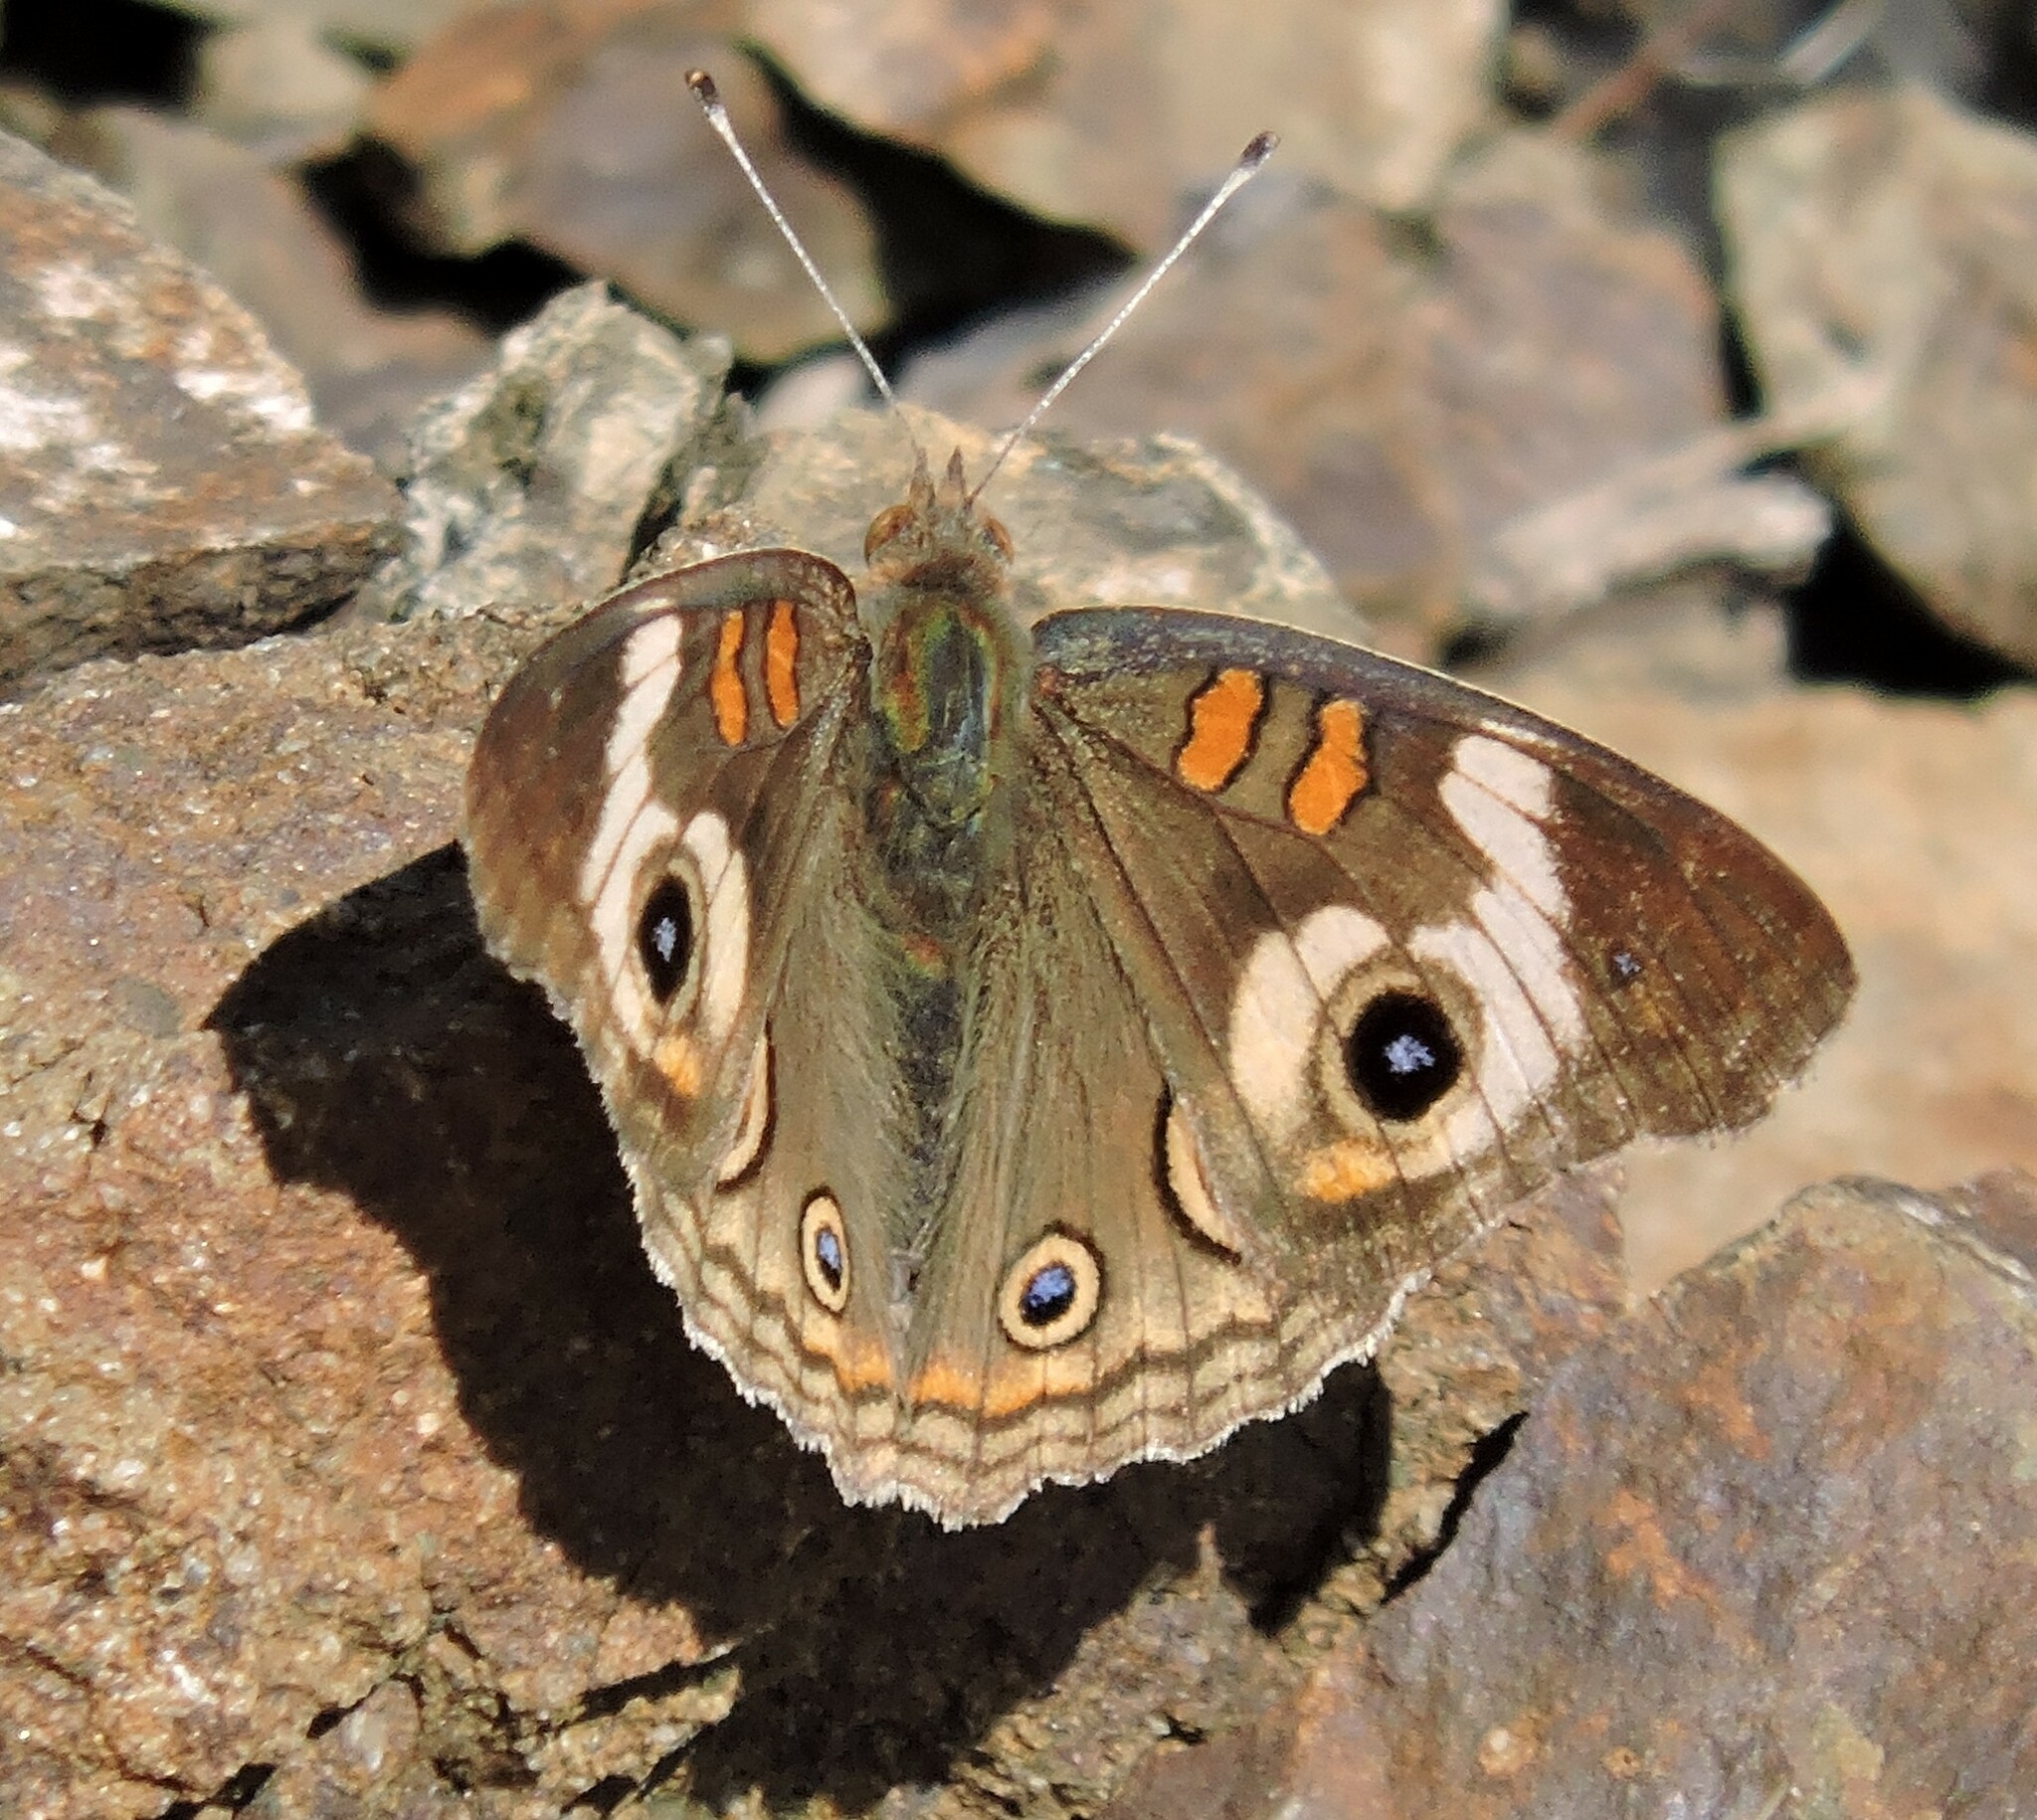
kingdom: Animalia
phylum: Arthropoda
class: Insecta
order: Lepidoptera
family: Nymphalidae
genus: Junonia
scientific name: Junonia grisea
